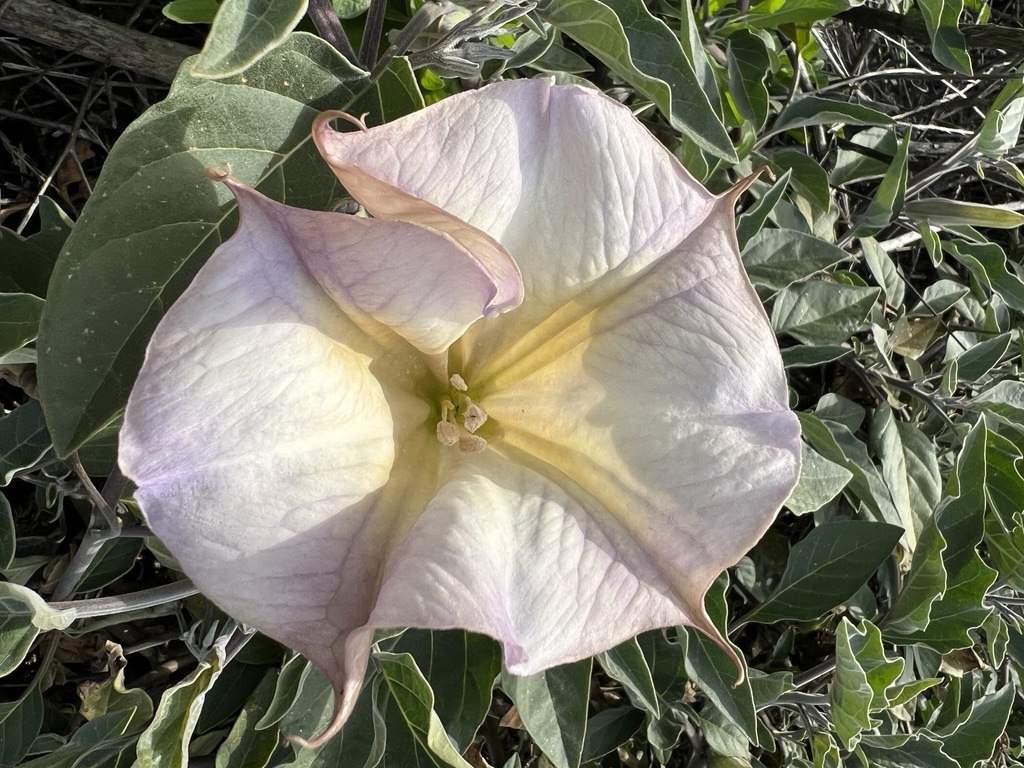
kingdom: Plantae
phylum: Tracheophyta
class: Magnoliopsida
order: Solanales
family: Solanaceae
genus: Datura
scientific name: Datura wrightii
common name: Sacred thorn-apple
